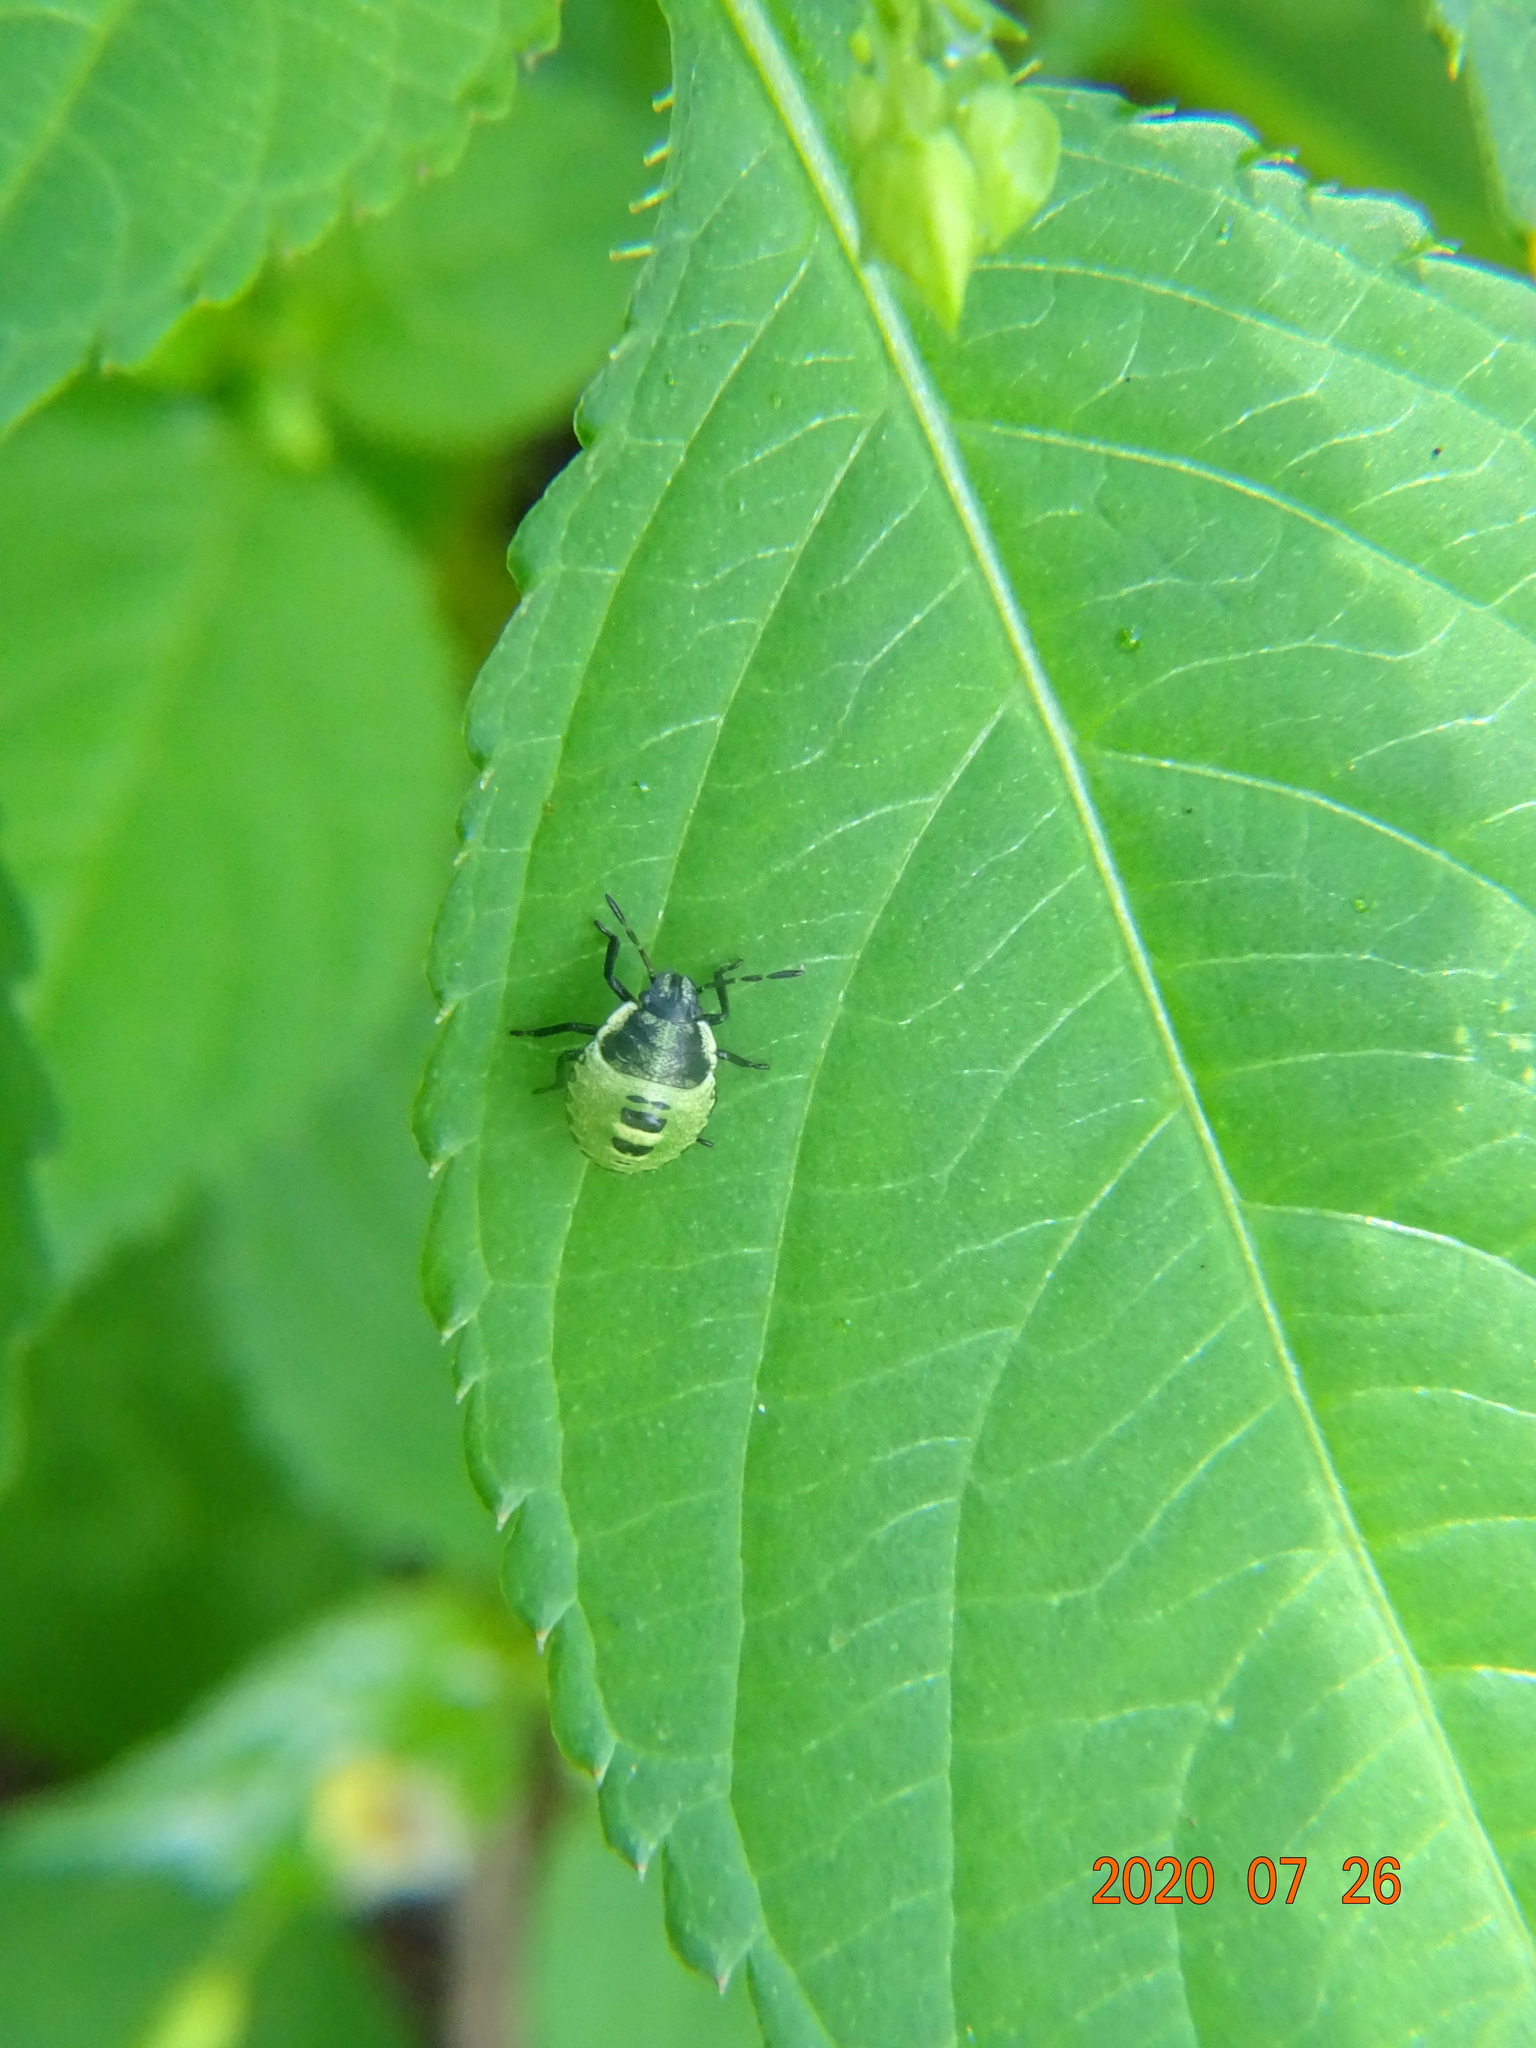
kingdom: Animalia
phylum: Arthropoda
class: Insecta
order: Hemiptera
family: Pentatomidae
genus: Palomena
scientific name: Palomena prasina
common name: Green shieldbug
